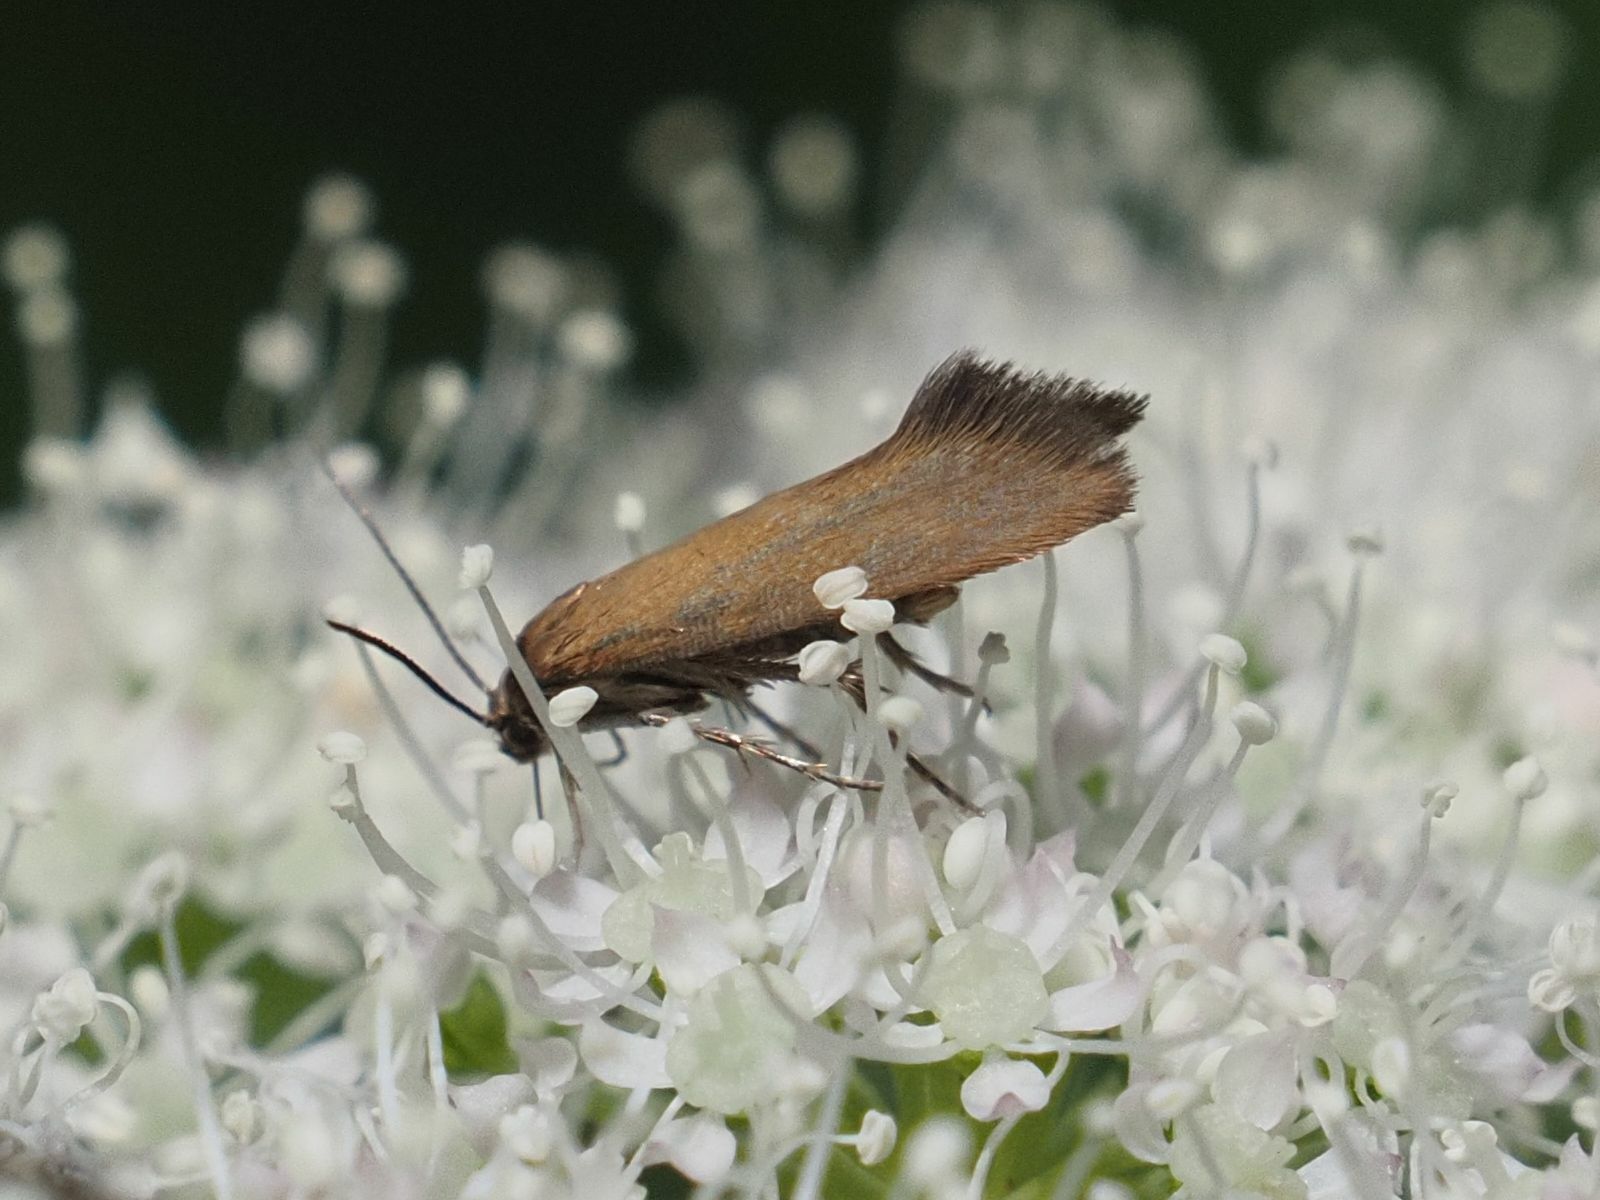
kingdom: Animalia
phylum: Arthropoda
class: Insecta
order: Lepidoptera
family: Epermeniidae
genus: Epermenia
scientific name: Epermenia devotella
